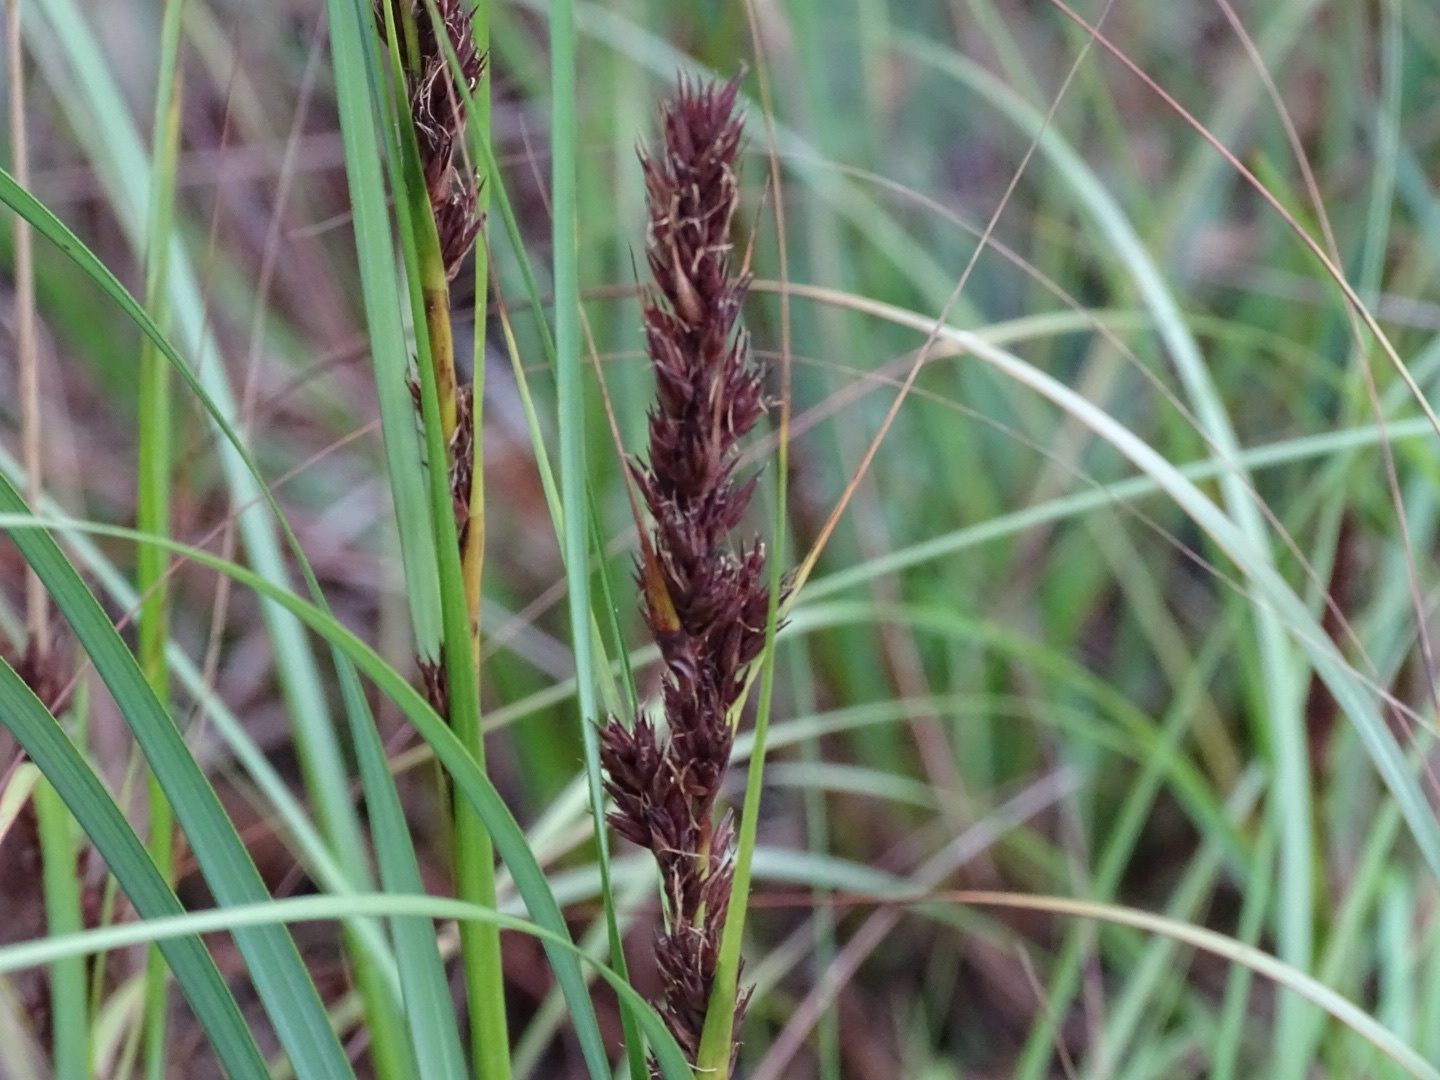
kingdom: Plantae
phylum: Tracheophyta
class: Liliopsida
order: Poales
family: Cyperaceae
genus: Gahnia
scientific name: Gahnia tristis
